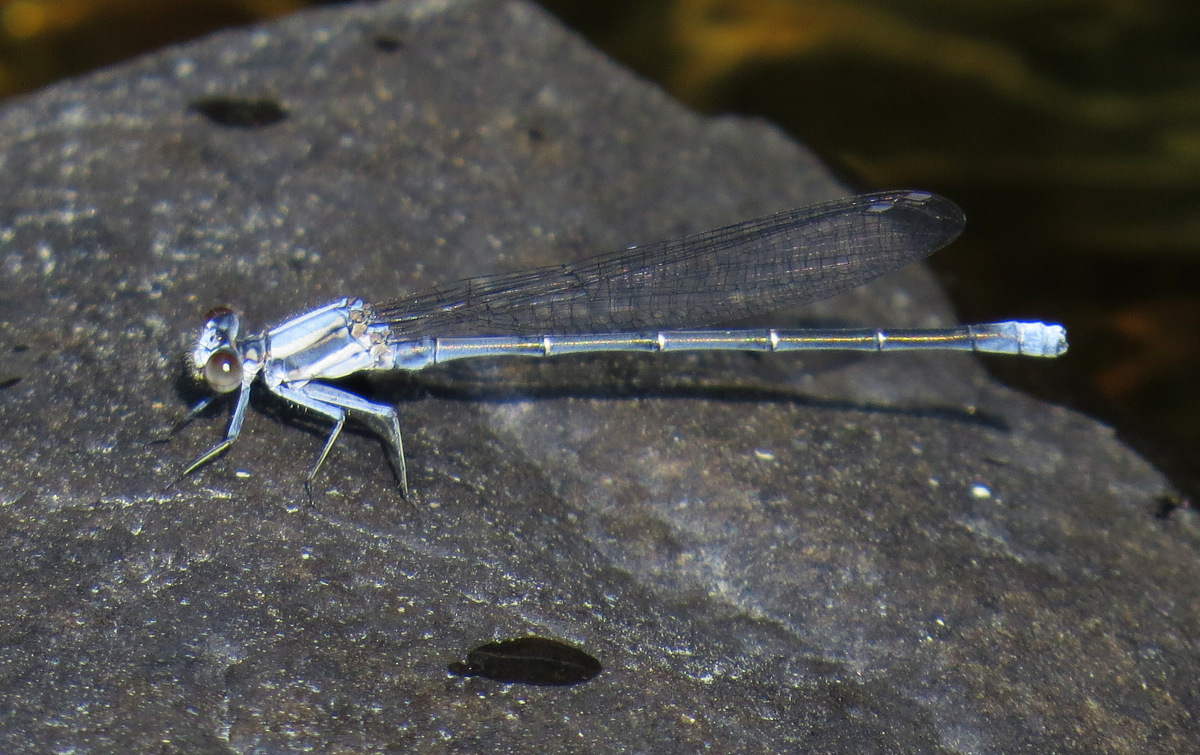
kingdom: Animalia
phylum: Arthropoda
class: Insecta
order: Odonata
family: Coenagrionidae
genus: Argia
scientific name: Argia moesta
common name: Powdered dancer
